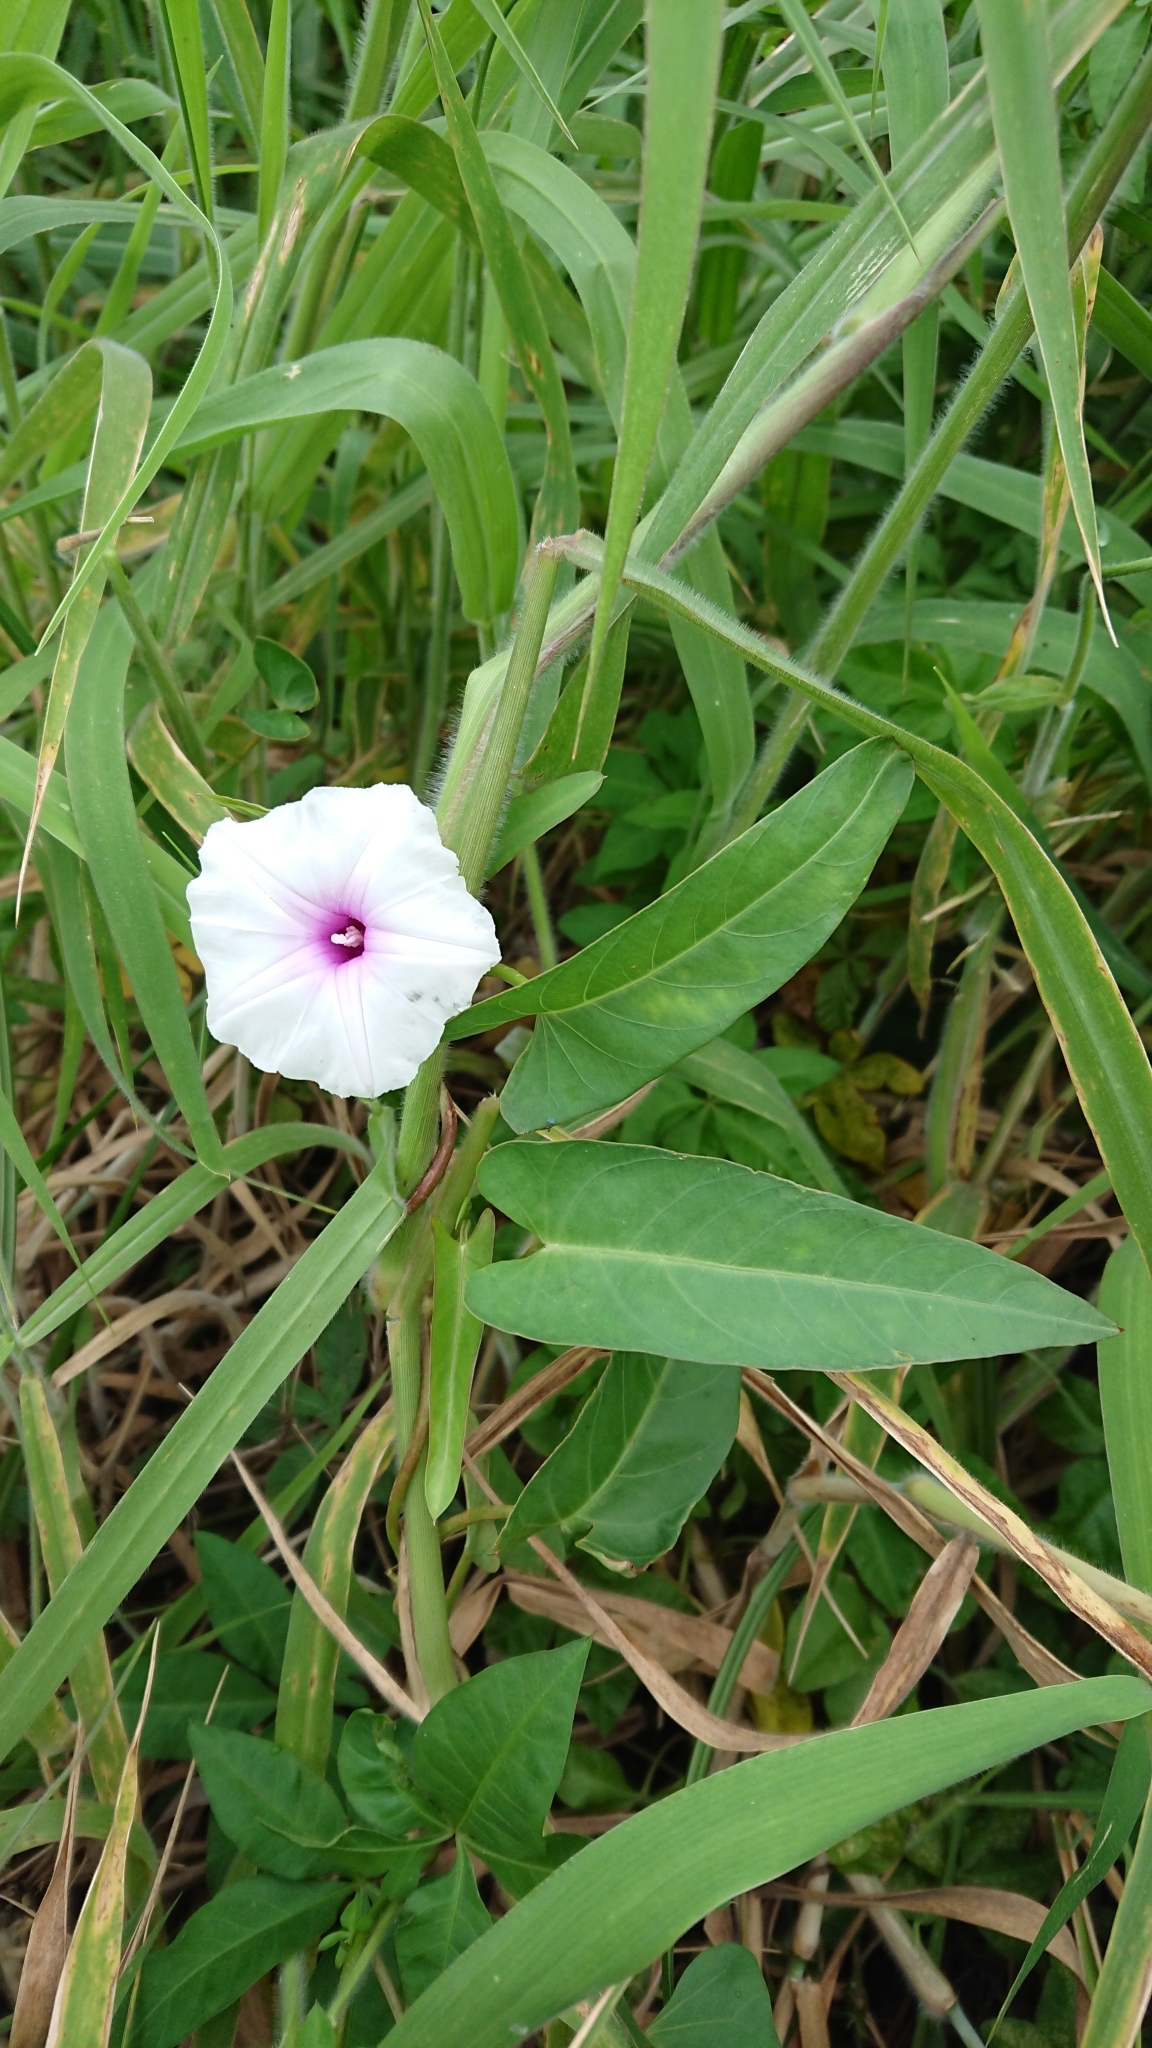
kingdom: Plantae
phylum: Tracheophyta
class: Magnoliopsida
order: Solanales
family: Convolvulaceae
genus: Ipomoea
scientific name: Ipomoea aquatica
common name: Swamp morning-glory
